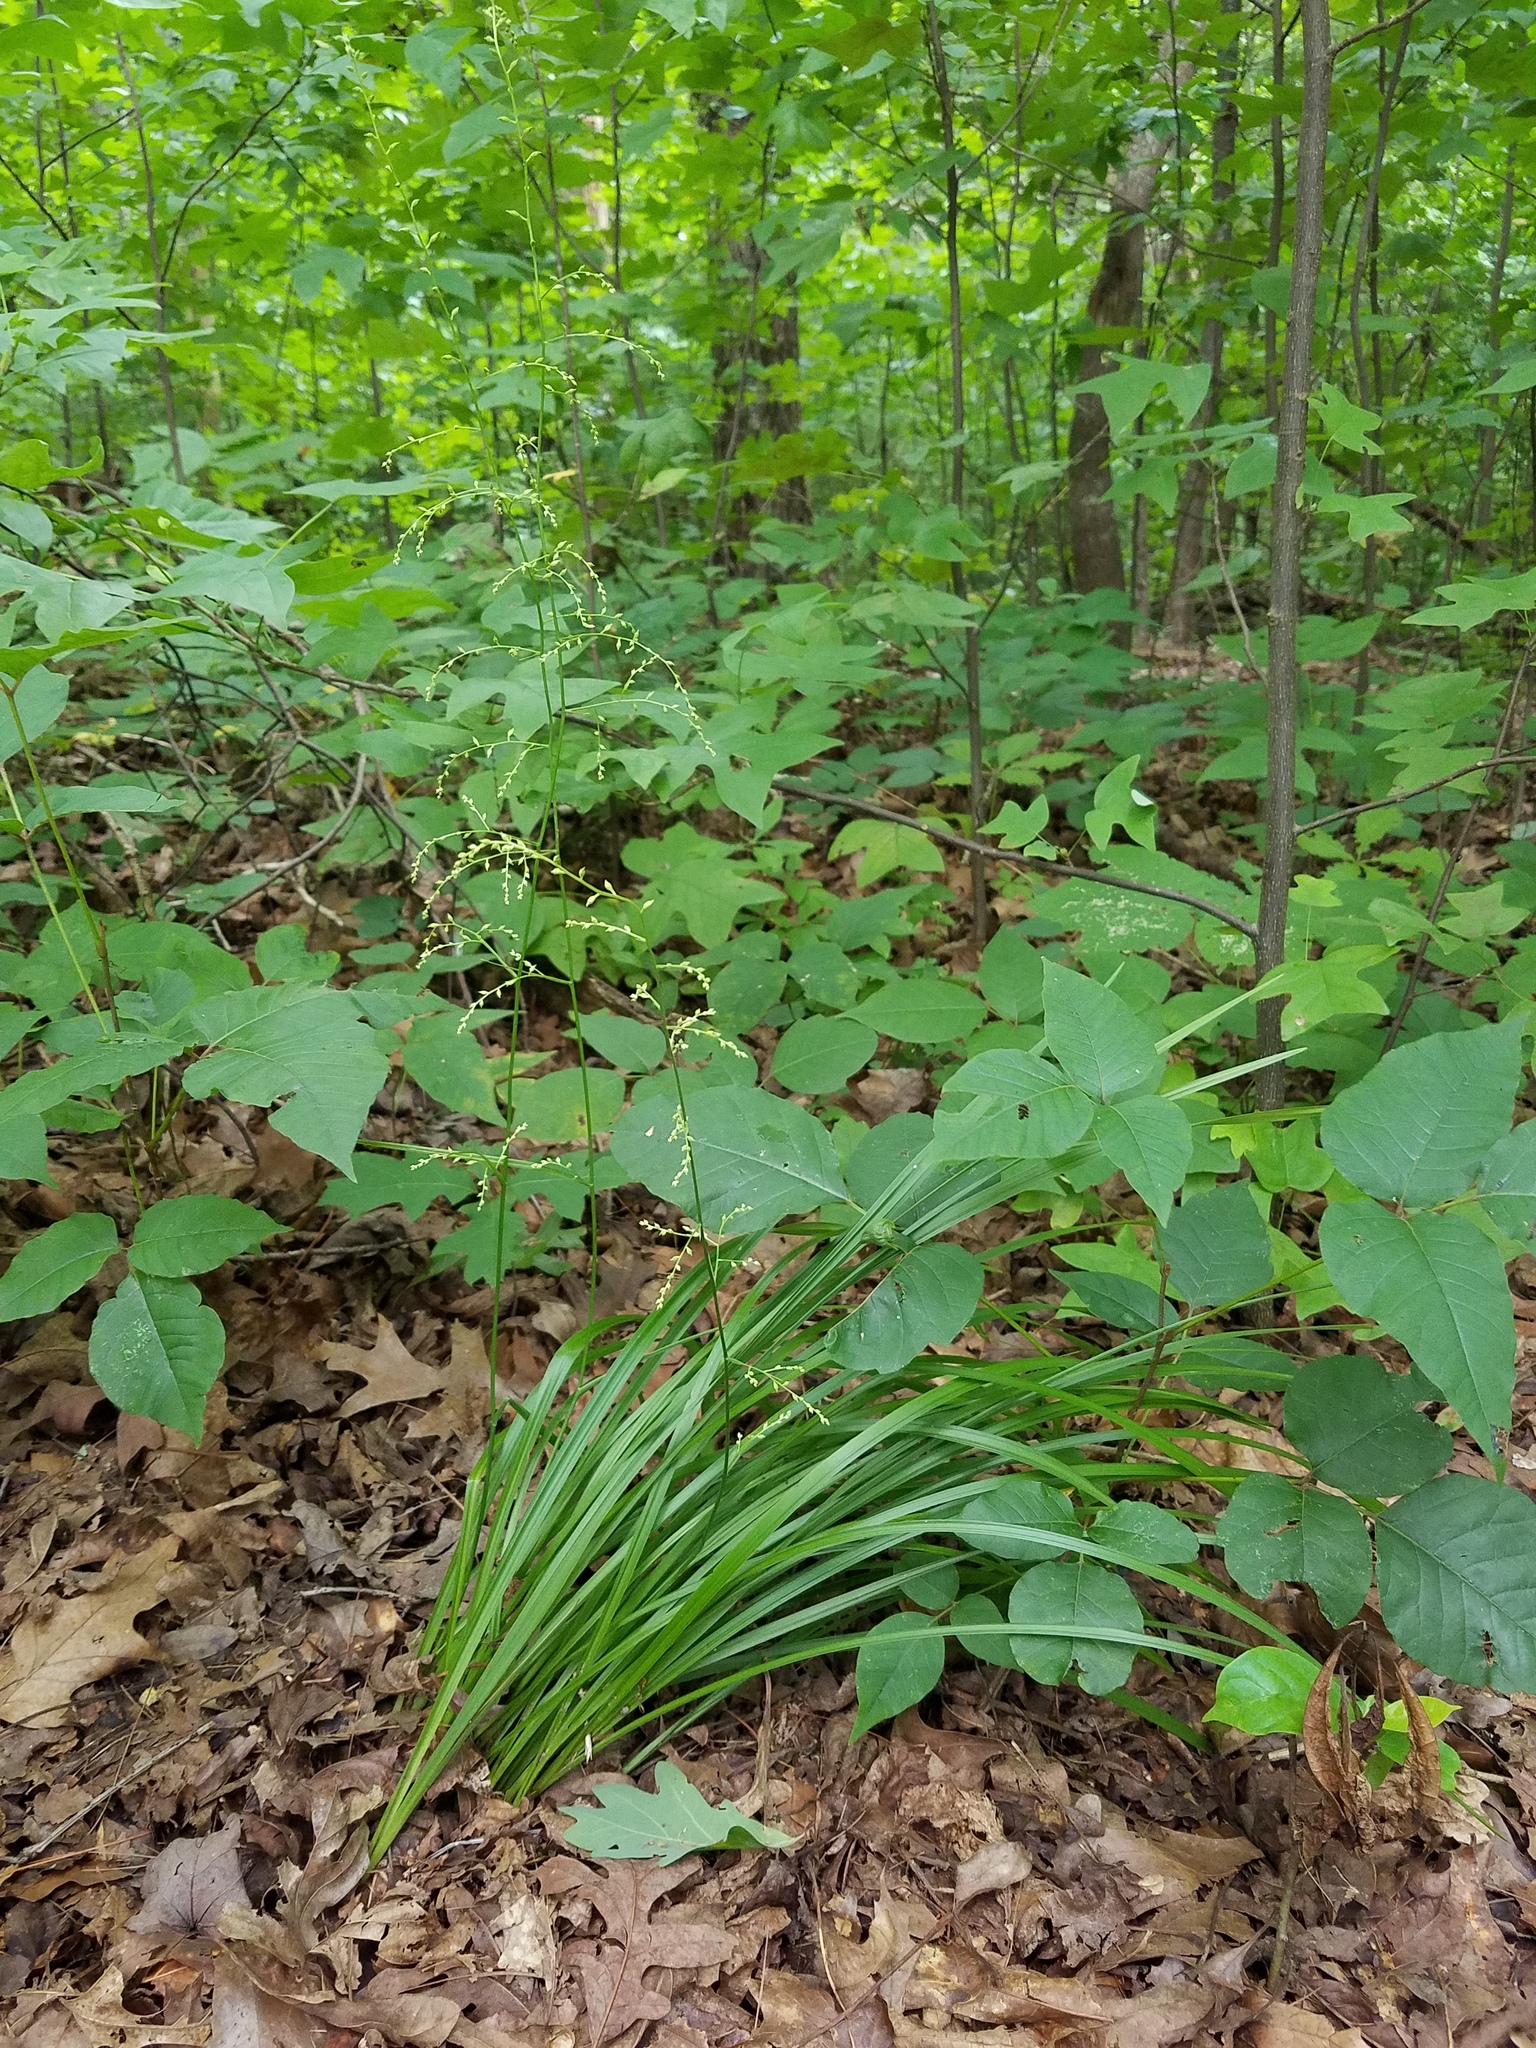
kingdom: Plantae
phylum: Tracheophyta
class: Liliopsida
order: Liliales
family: Melanthiaceae
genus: Stenanthium
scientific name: Stenanthium gramineum
